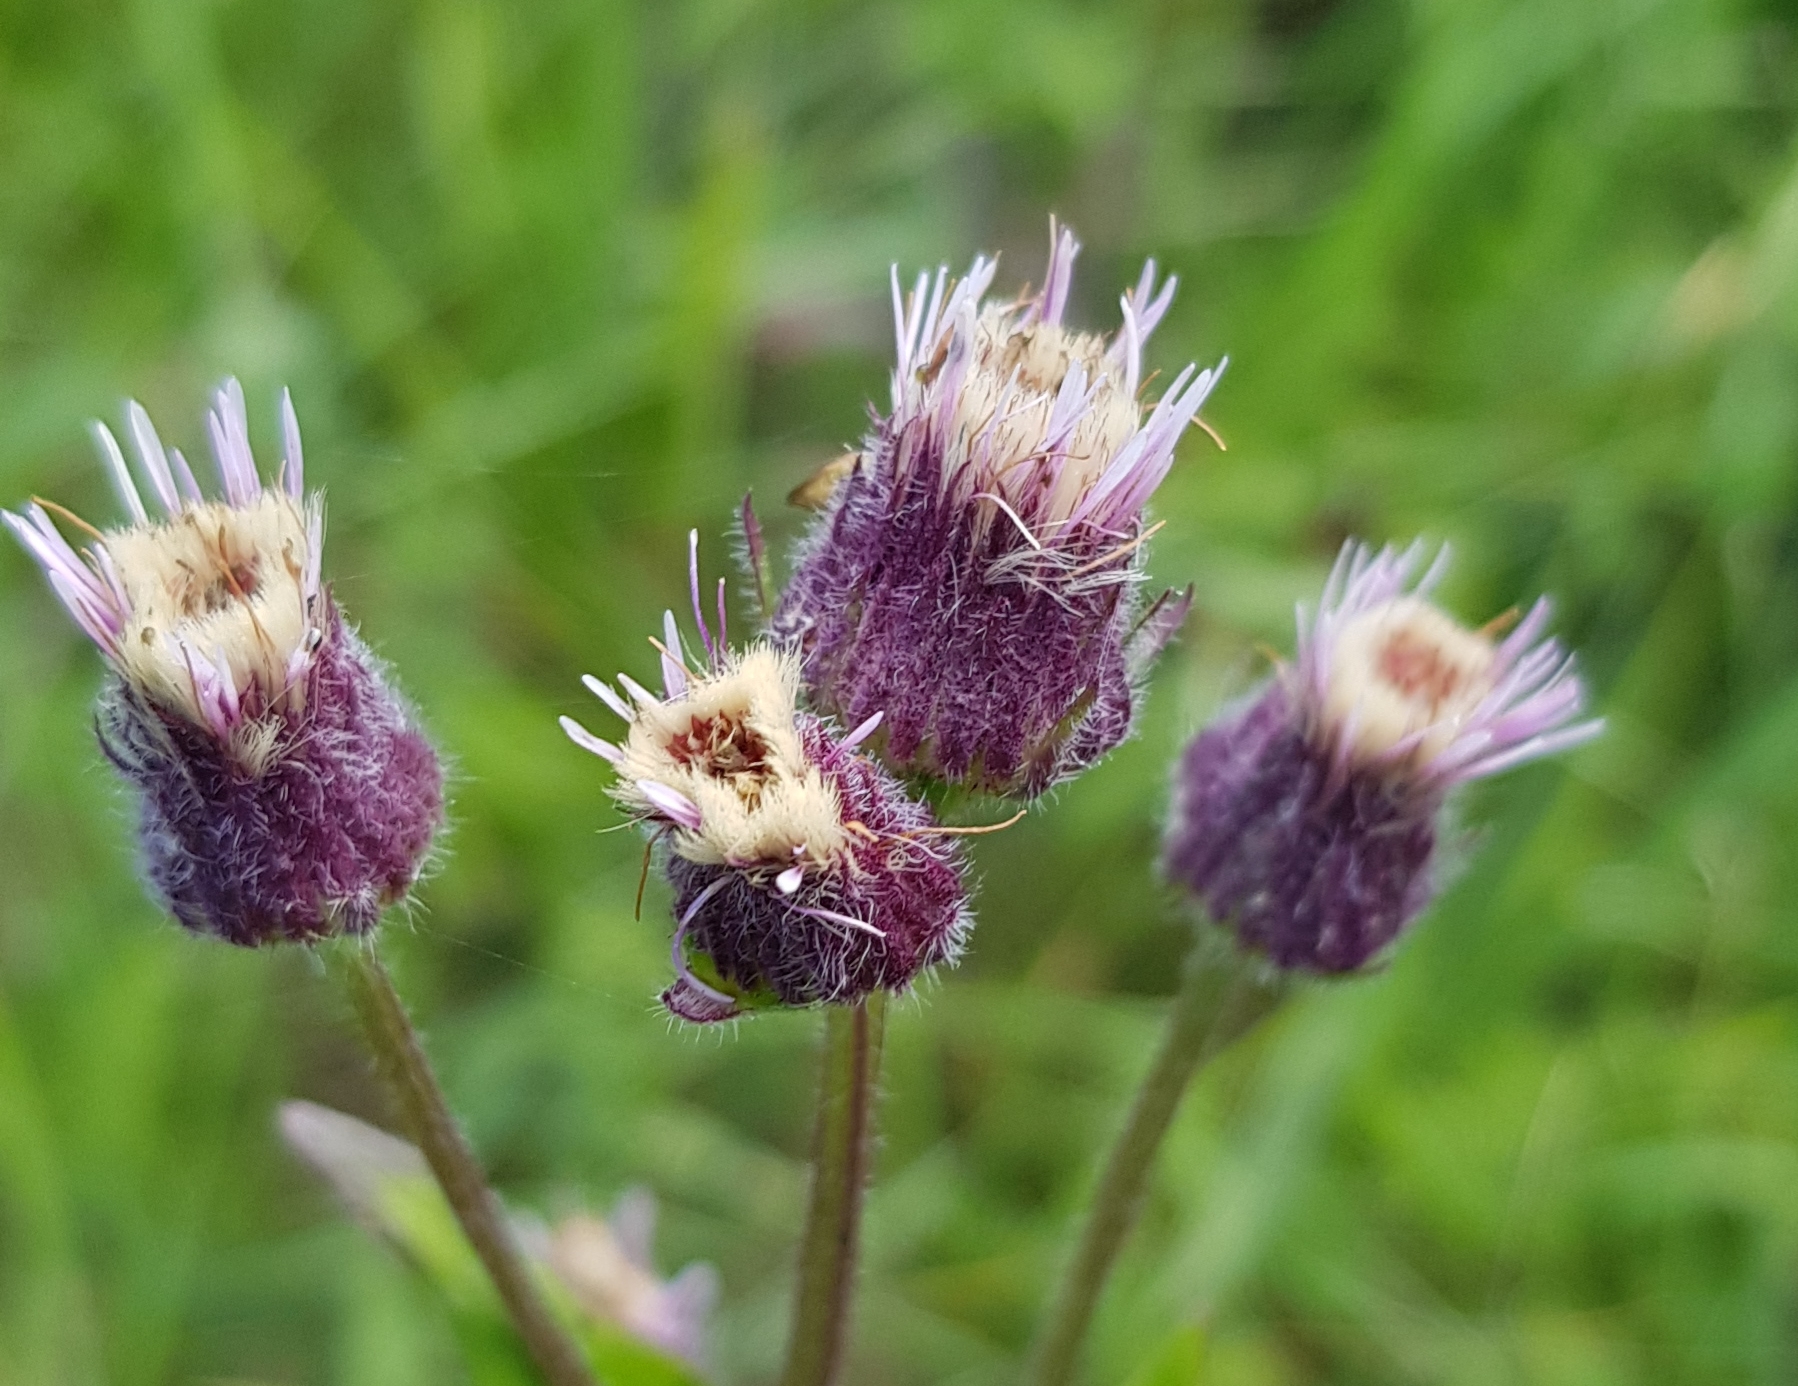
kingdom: Plantae
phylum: Tracheophyta
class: Magnoliopsida
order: Asterales
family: Asteraceae
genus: Erigeron
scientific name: Erigeron acris
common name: Blue fleabane
